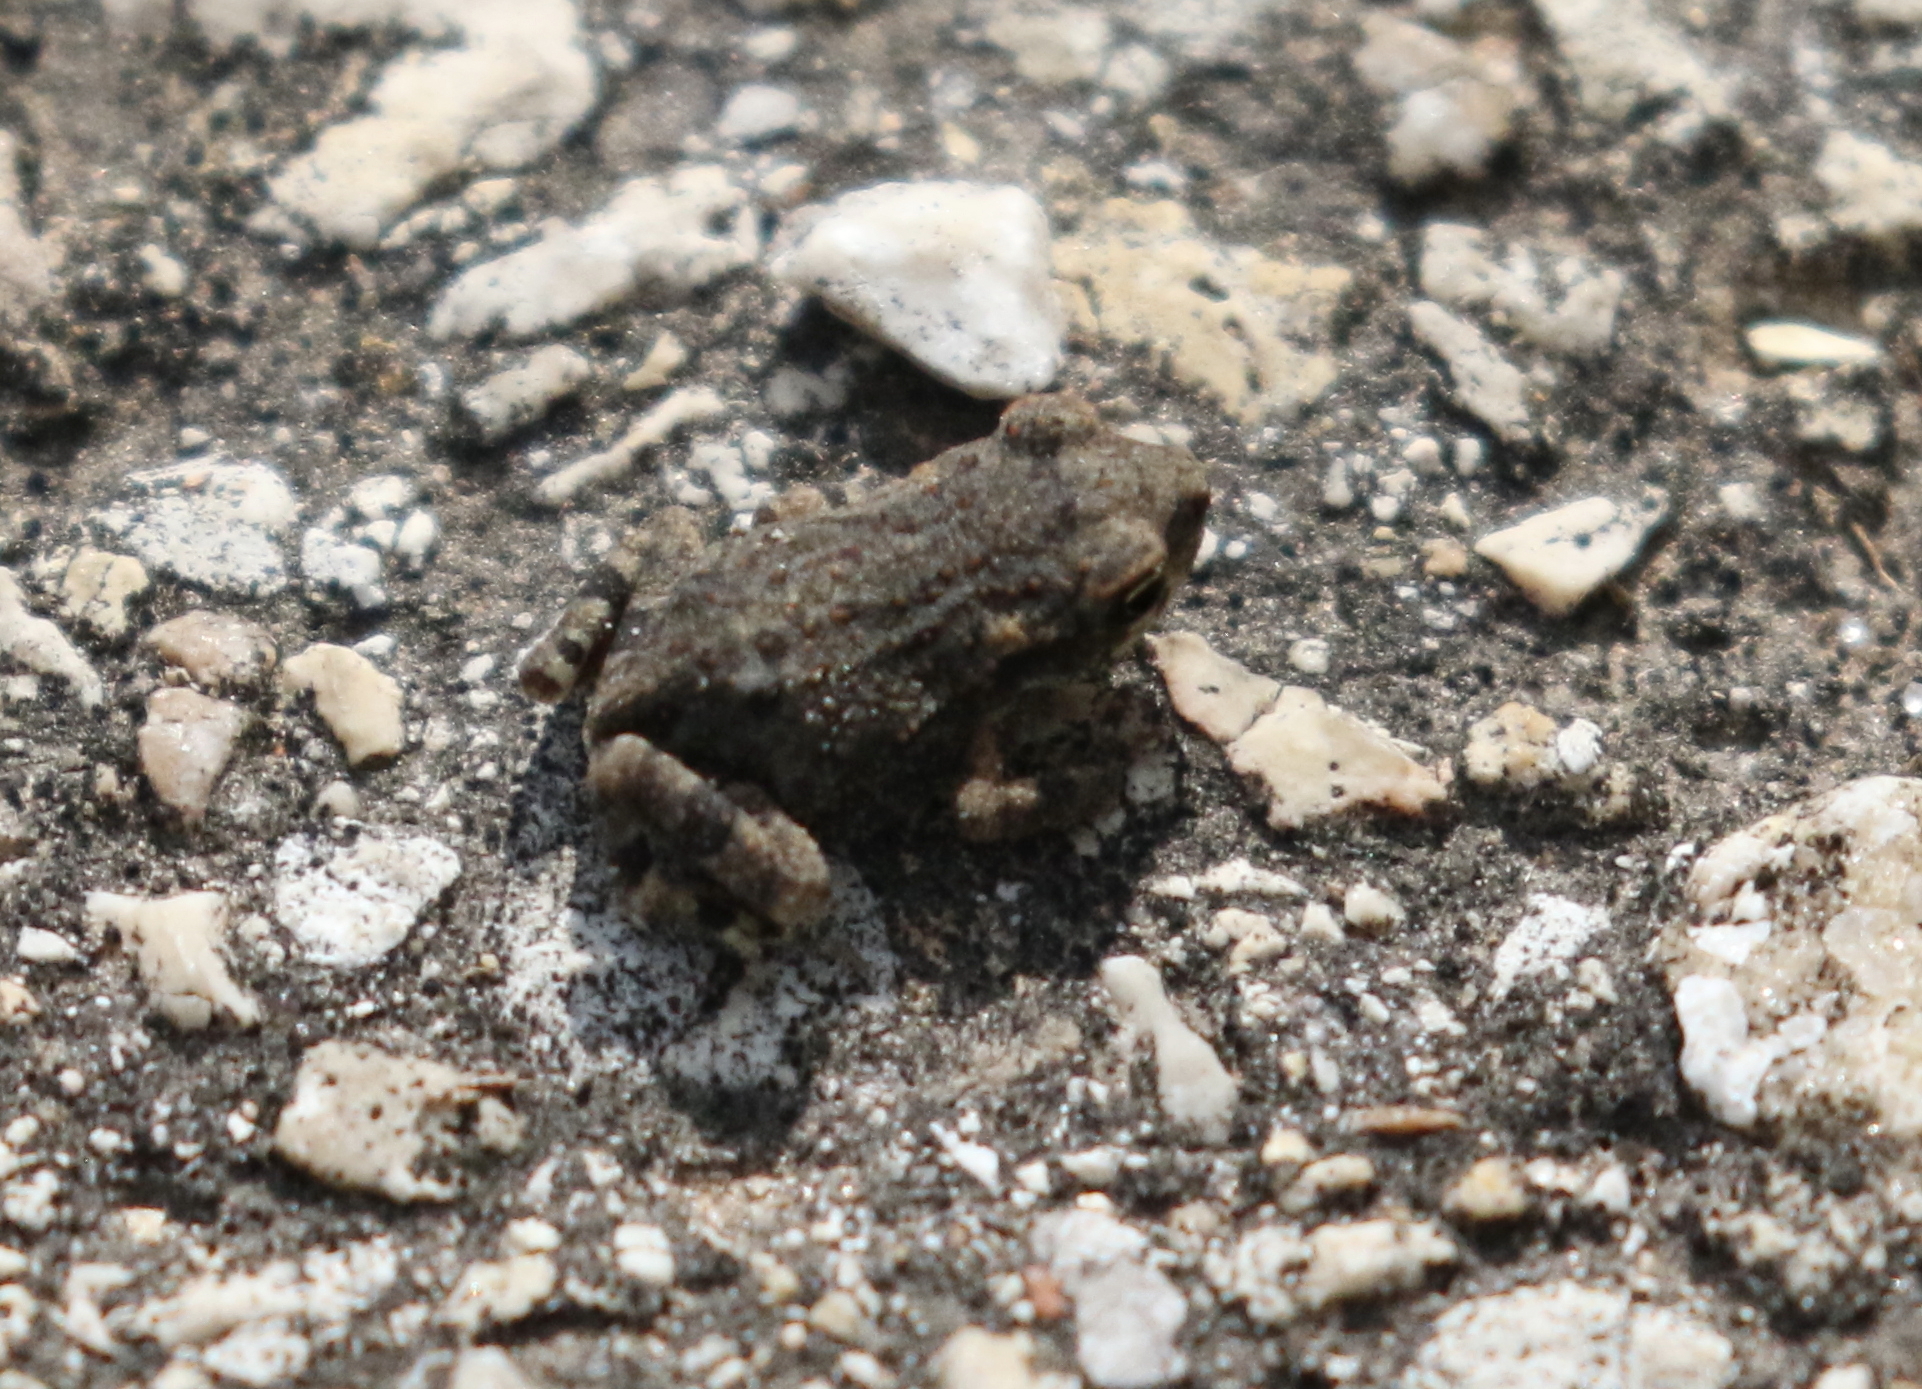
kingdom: Animalia
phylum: Chordata
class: Amphibia
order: Anura
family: Bufonidae
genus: Incilius
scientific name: Incilius nebulifer
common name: Gulf coast toad
